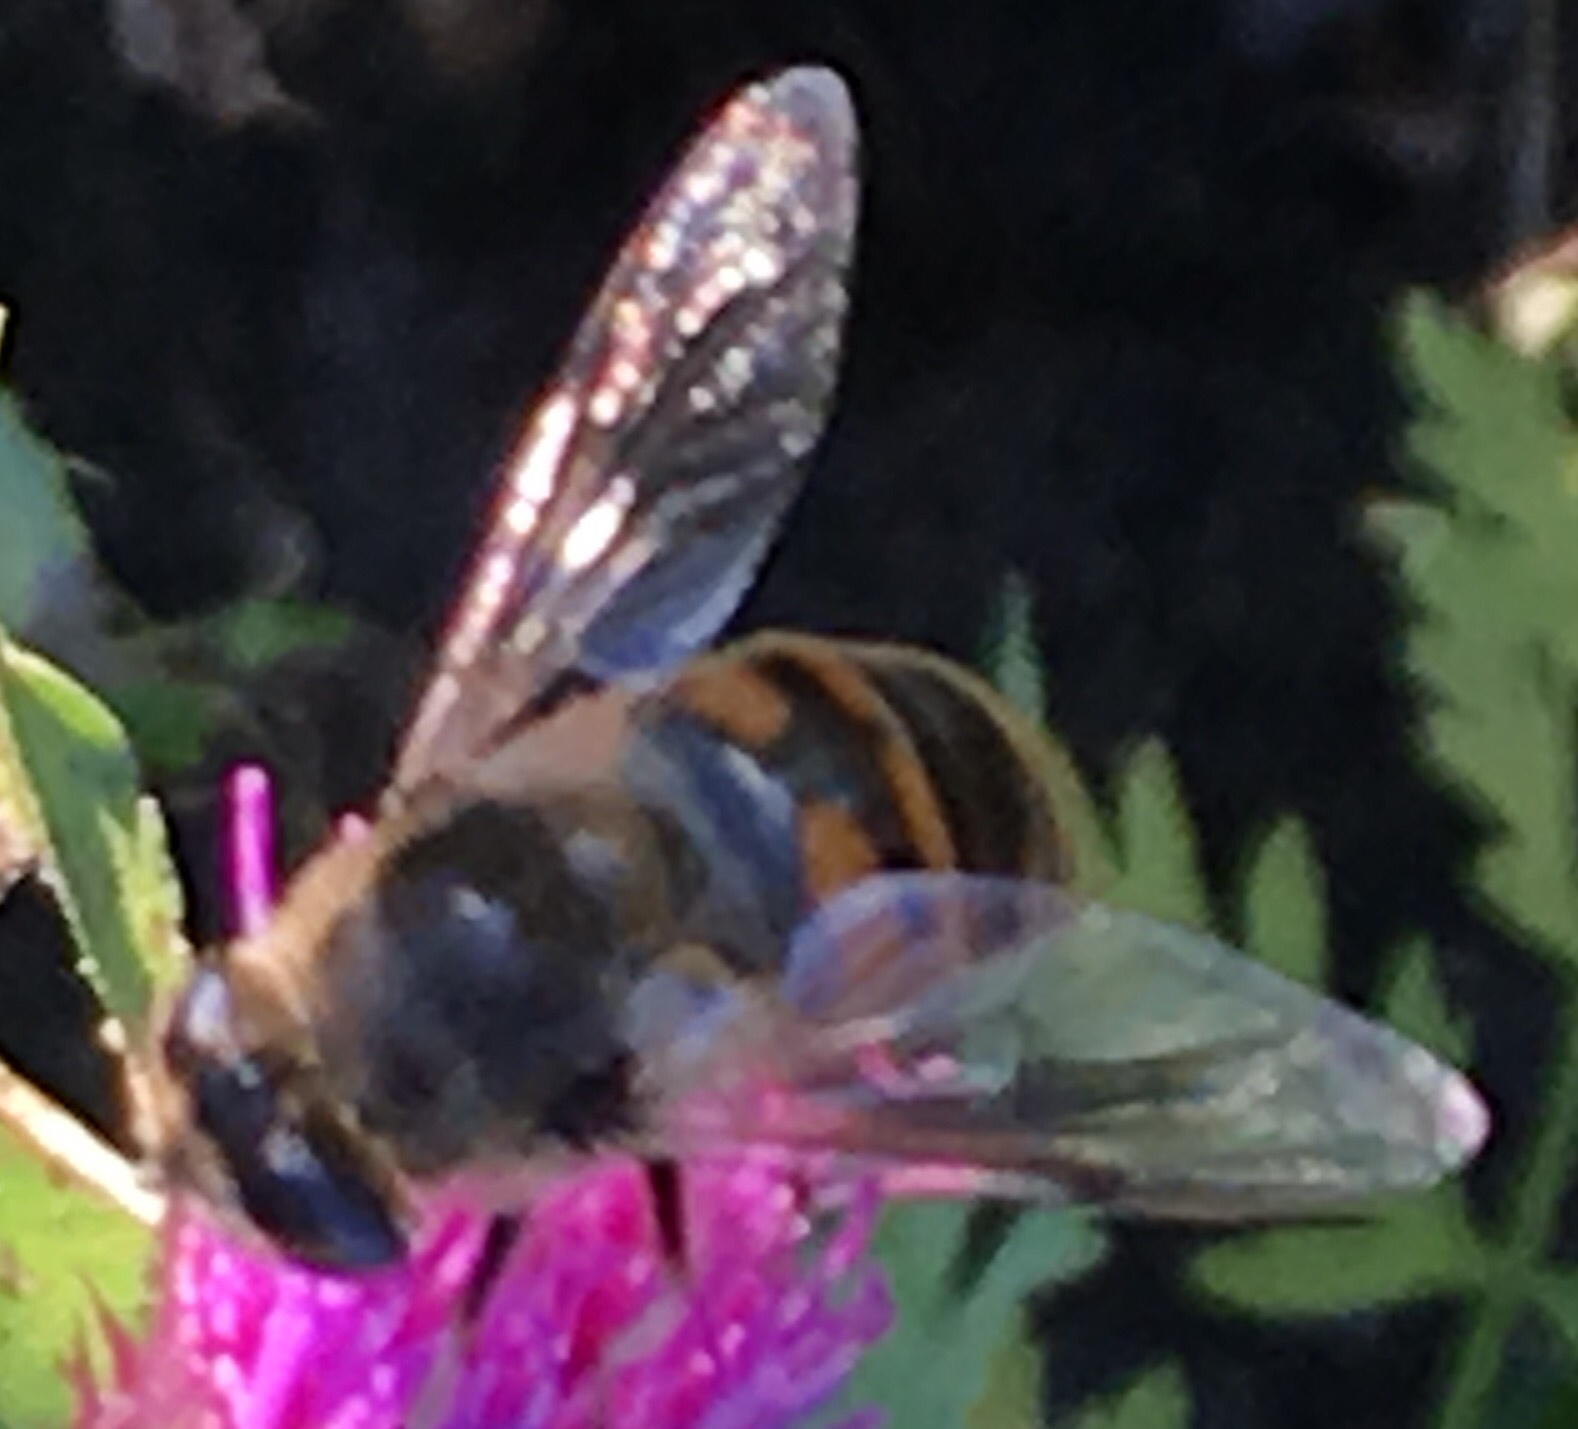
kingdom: Animalia
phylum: Arthropoda
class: Insecta
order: Diptera
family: Syrphidae
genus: Eristalis
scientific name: Eristalis tenax
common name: Drone fly
